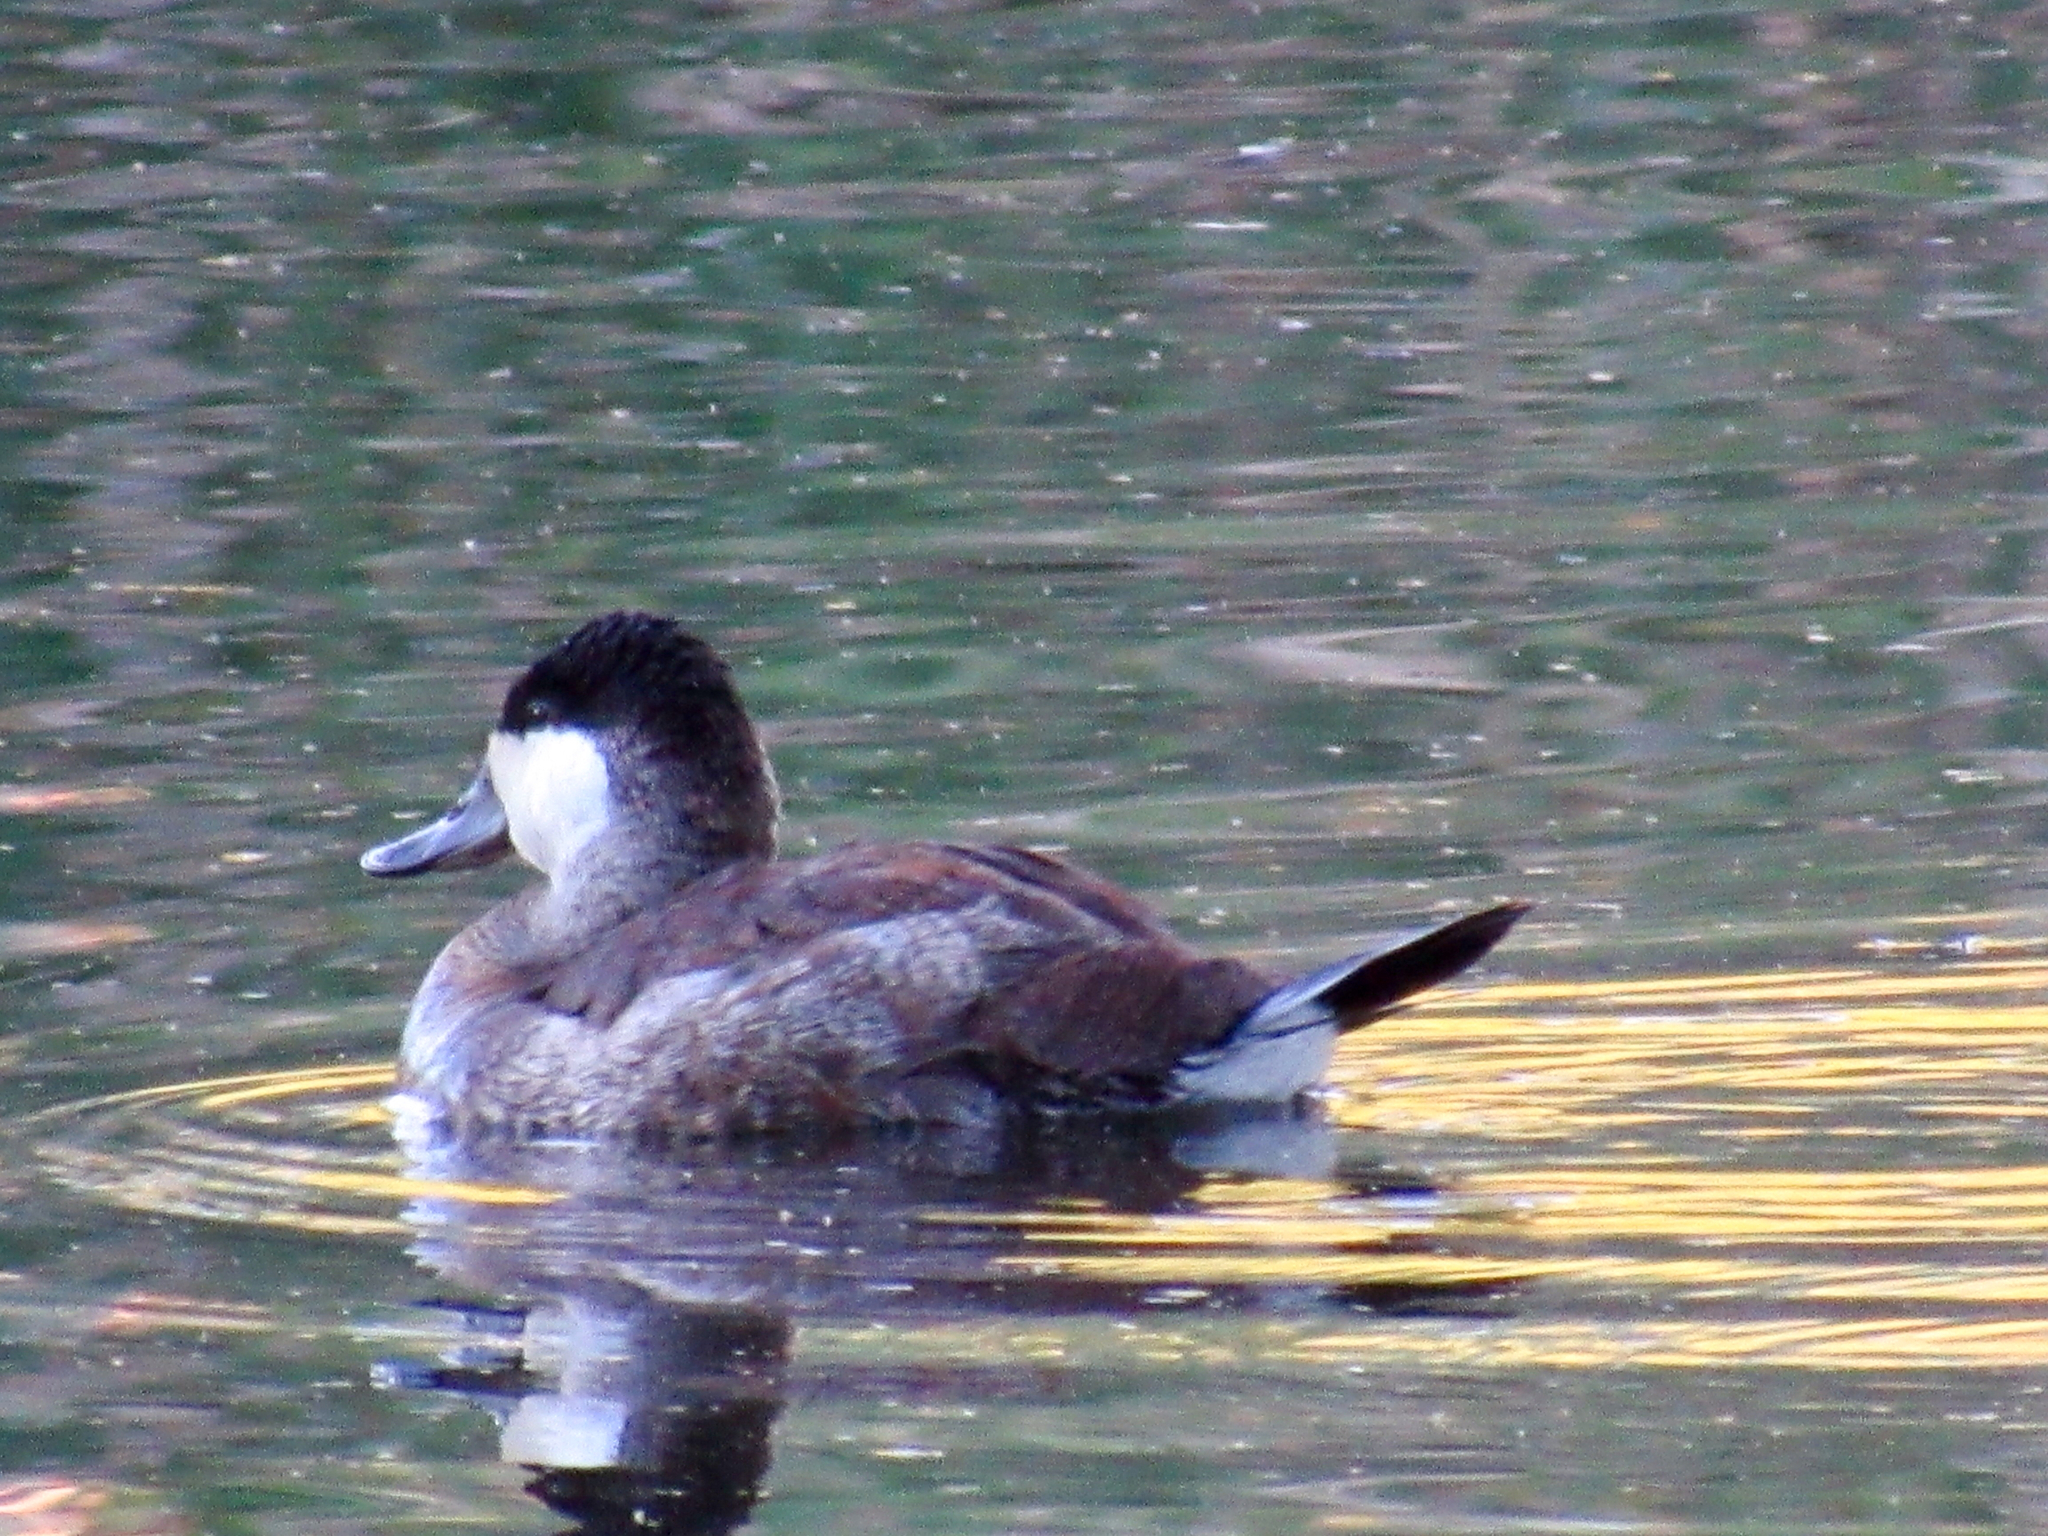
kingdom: Animalia
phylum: Chordata
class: Aves
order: Anseriformes
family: Anatidae
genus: Oxyura
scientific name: Oxyura jamaicensis
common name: Ruddy duck
